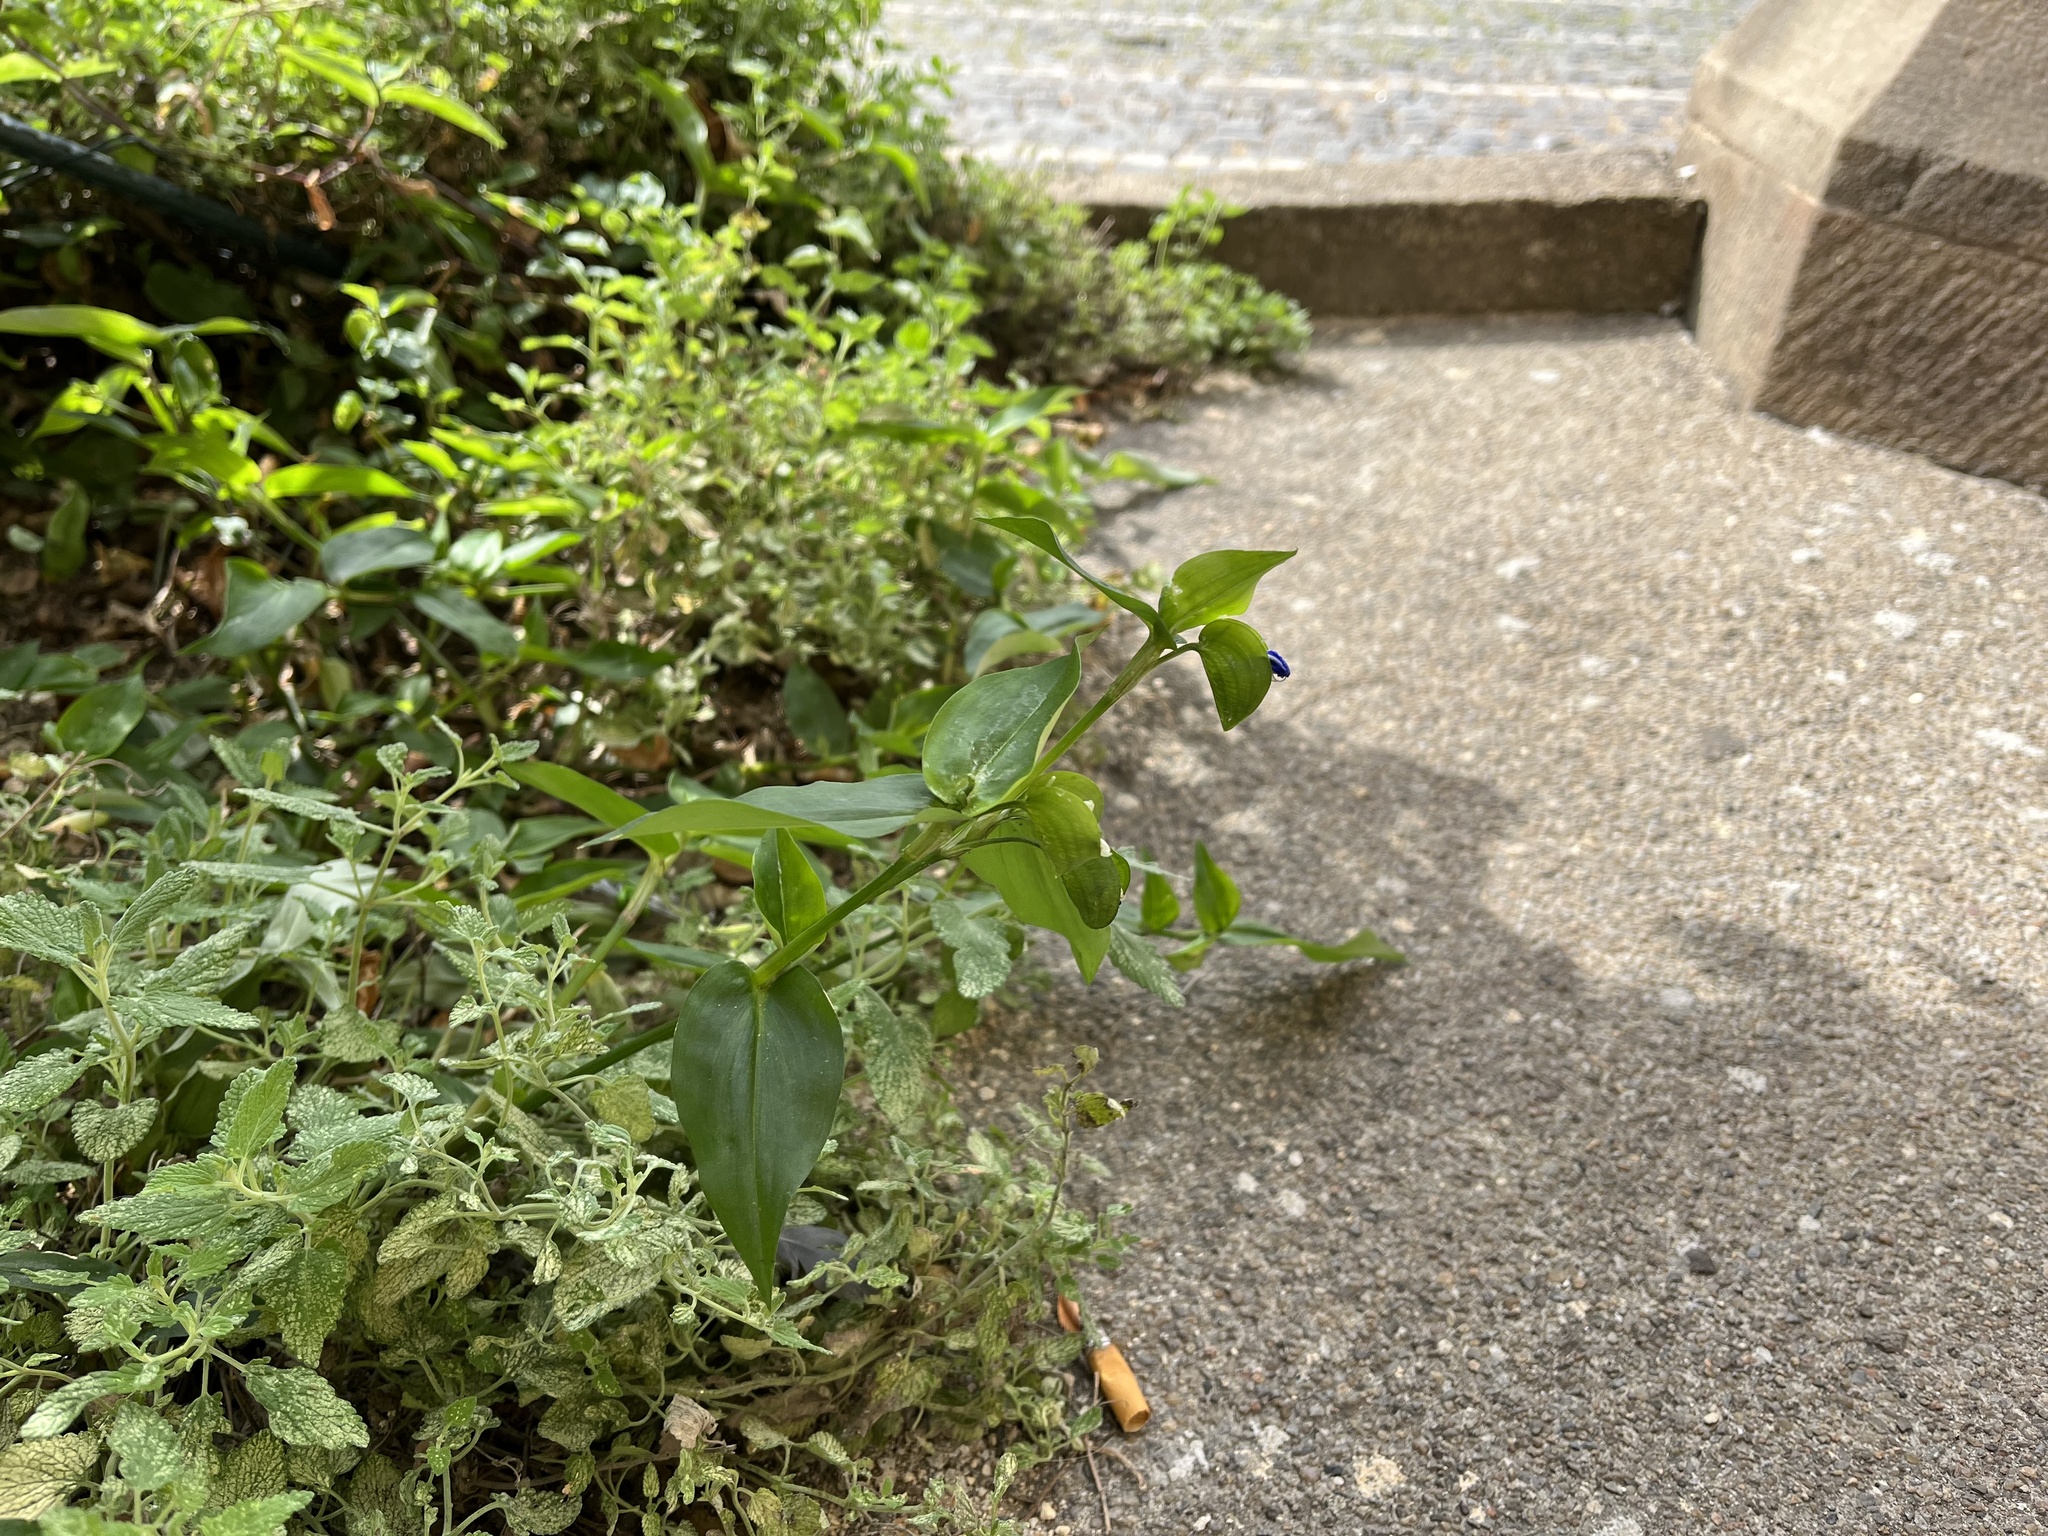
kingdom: Plantae
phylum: Tracheophyta
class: Liliopsida
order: Commelinales
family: Commelinaceae
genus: Commelina
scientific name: Commelina communis
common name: Asiatic dayflower
